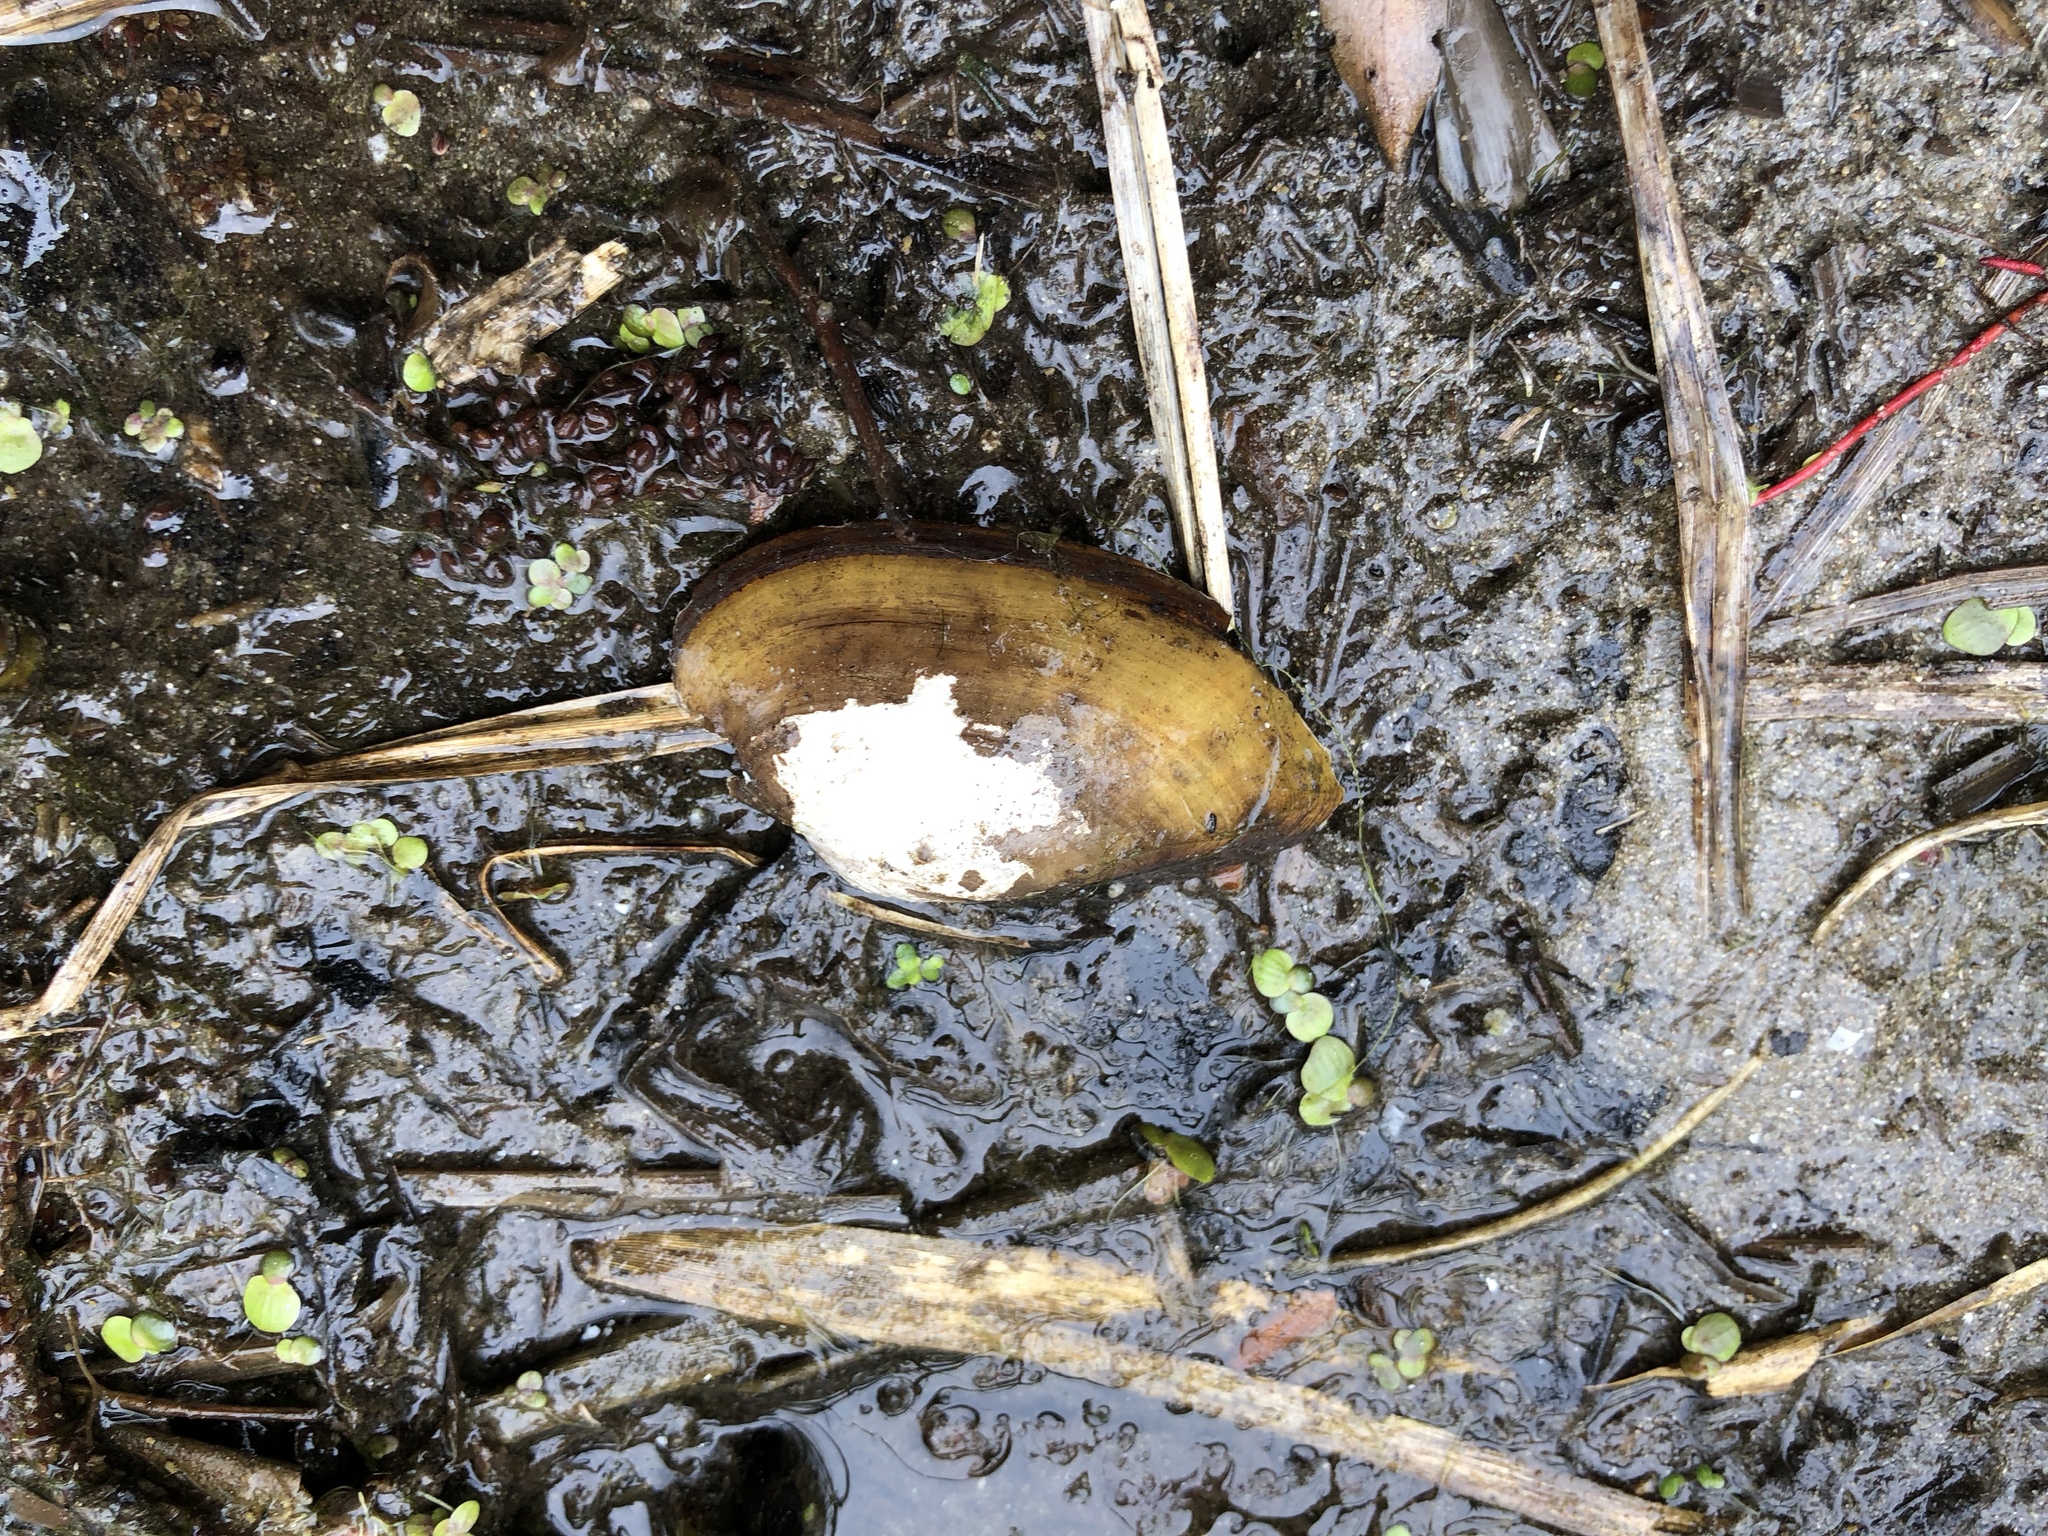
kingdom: Animalia
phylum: Mollusca
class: Bivalvia
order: Unionida
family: Unionidae
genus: Unio
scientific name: Unio tumidus
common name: Swollen river mussel
